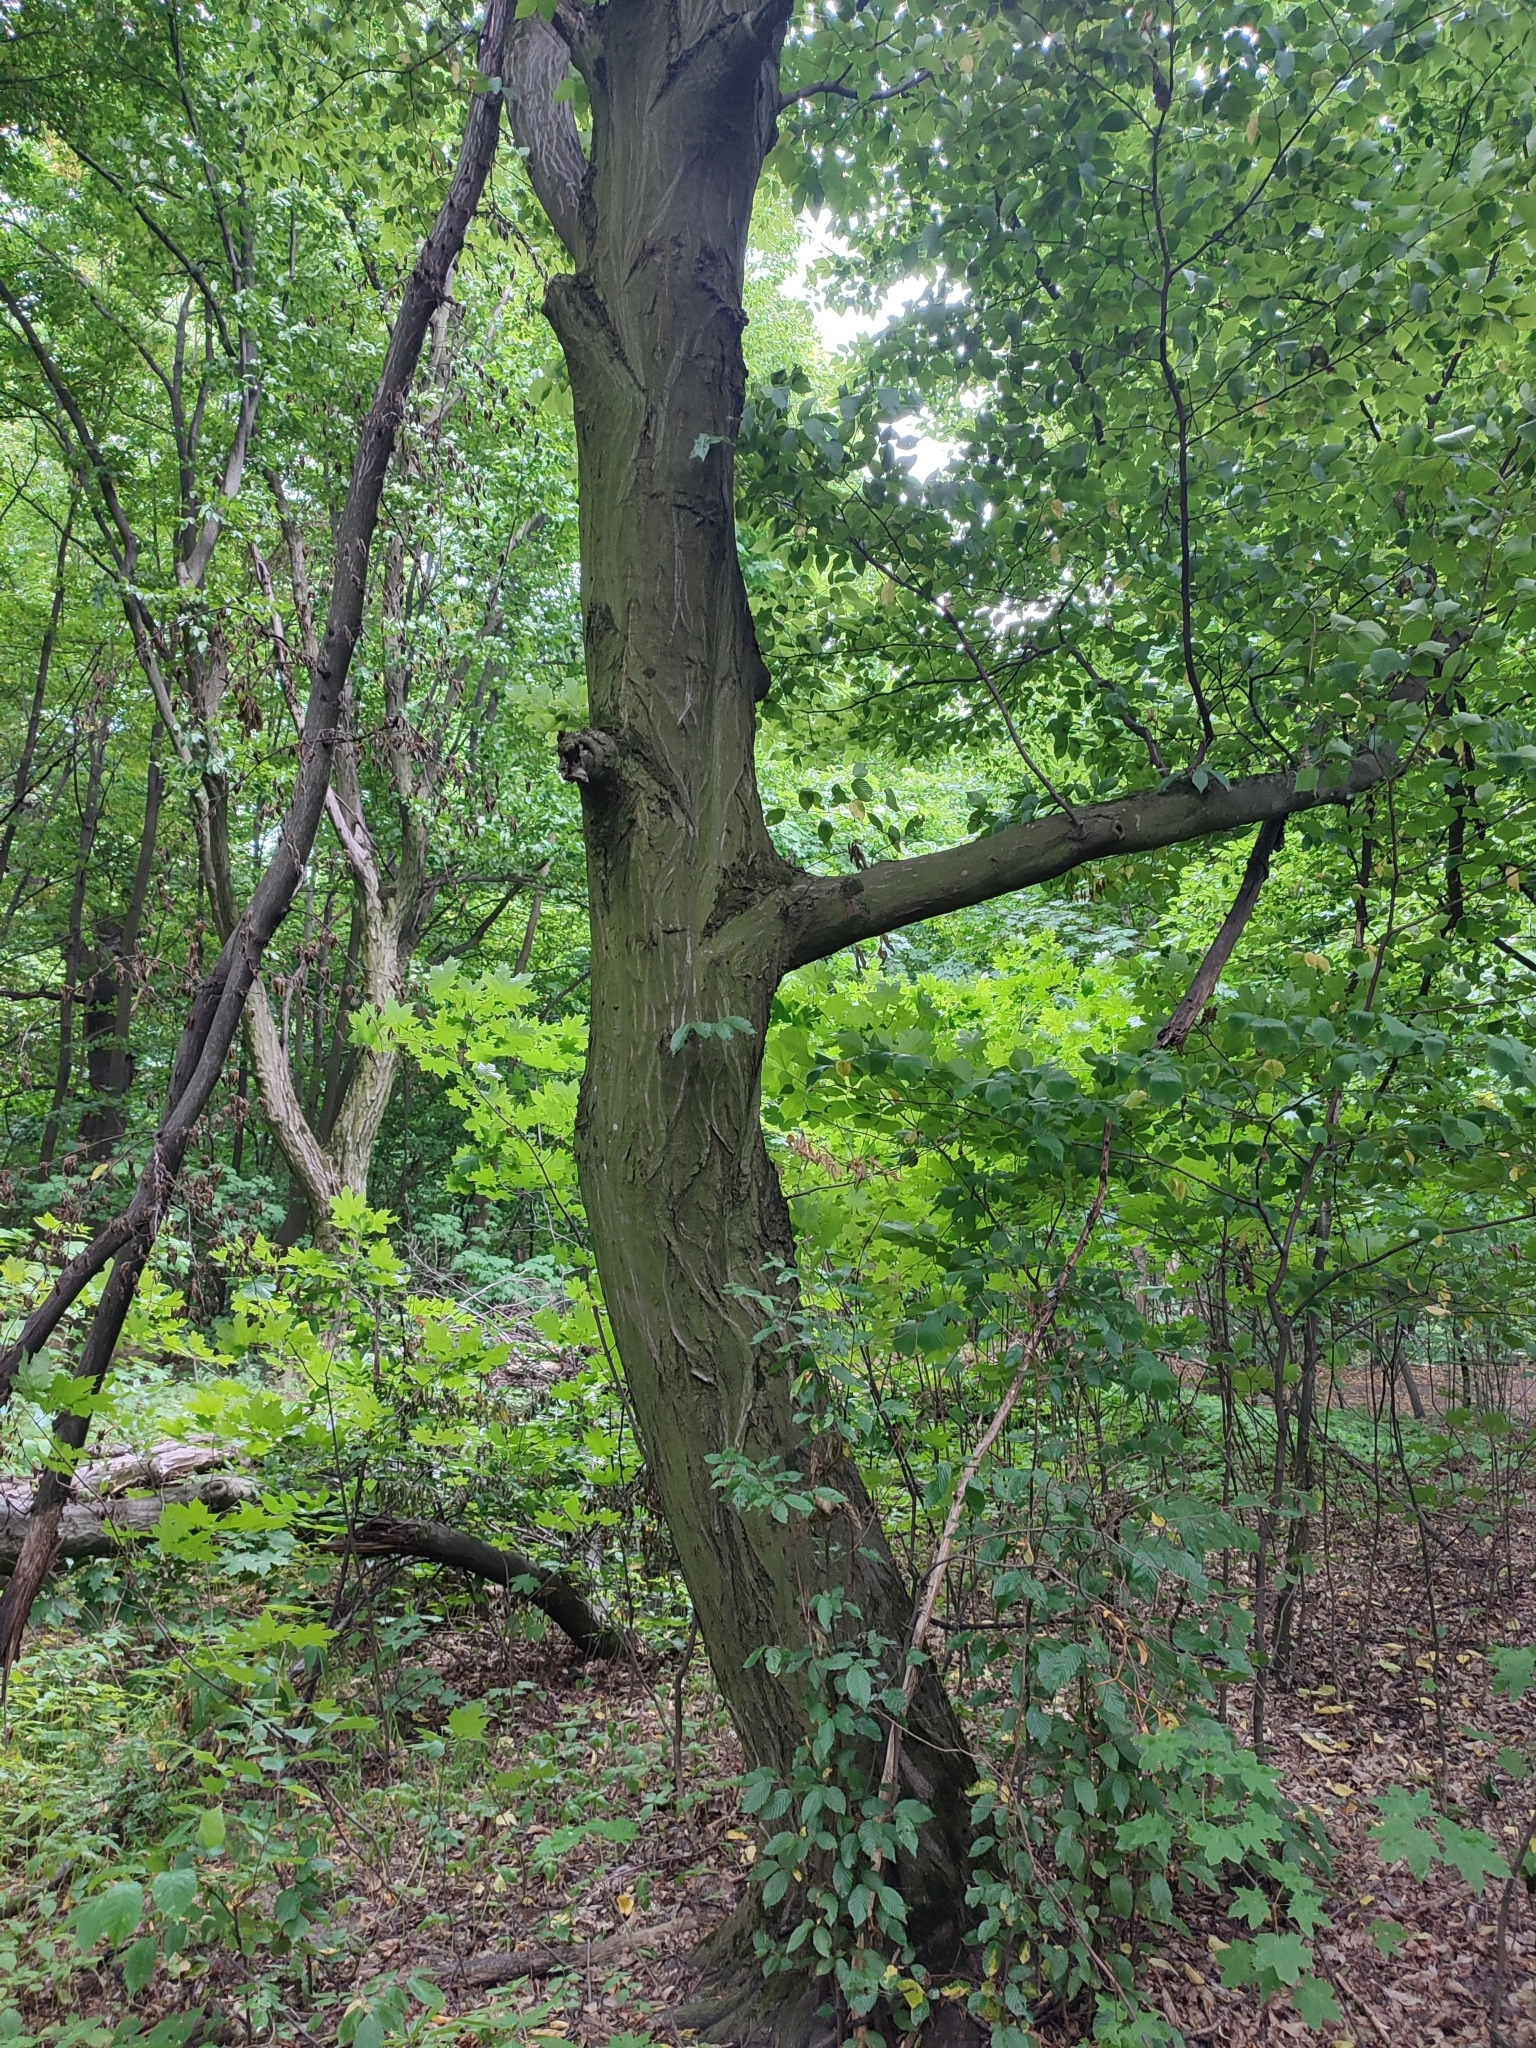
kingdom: Plantae
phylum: Tracheophyta
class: Magnoliopsida
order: Fagales
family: Betulaceae
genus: Carpinus
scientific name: Carpinus betulus
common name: Hornbeam
